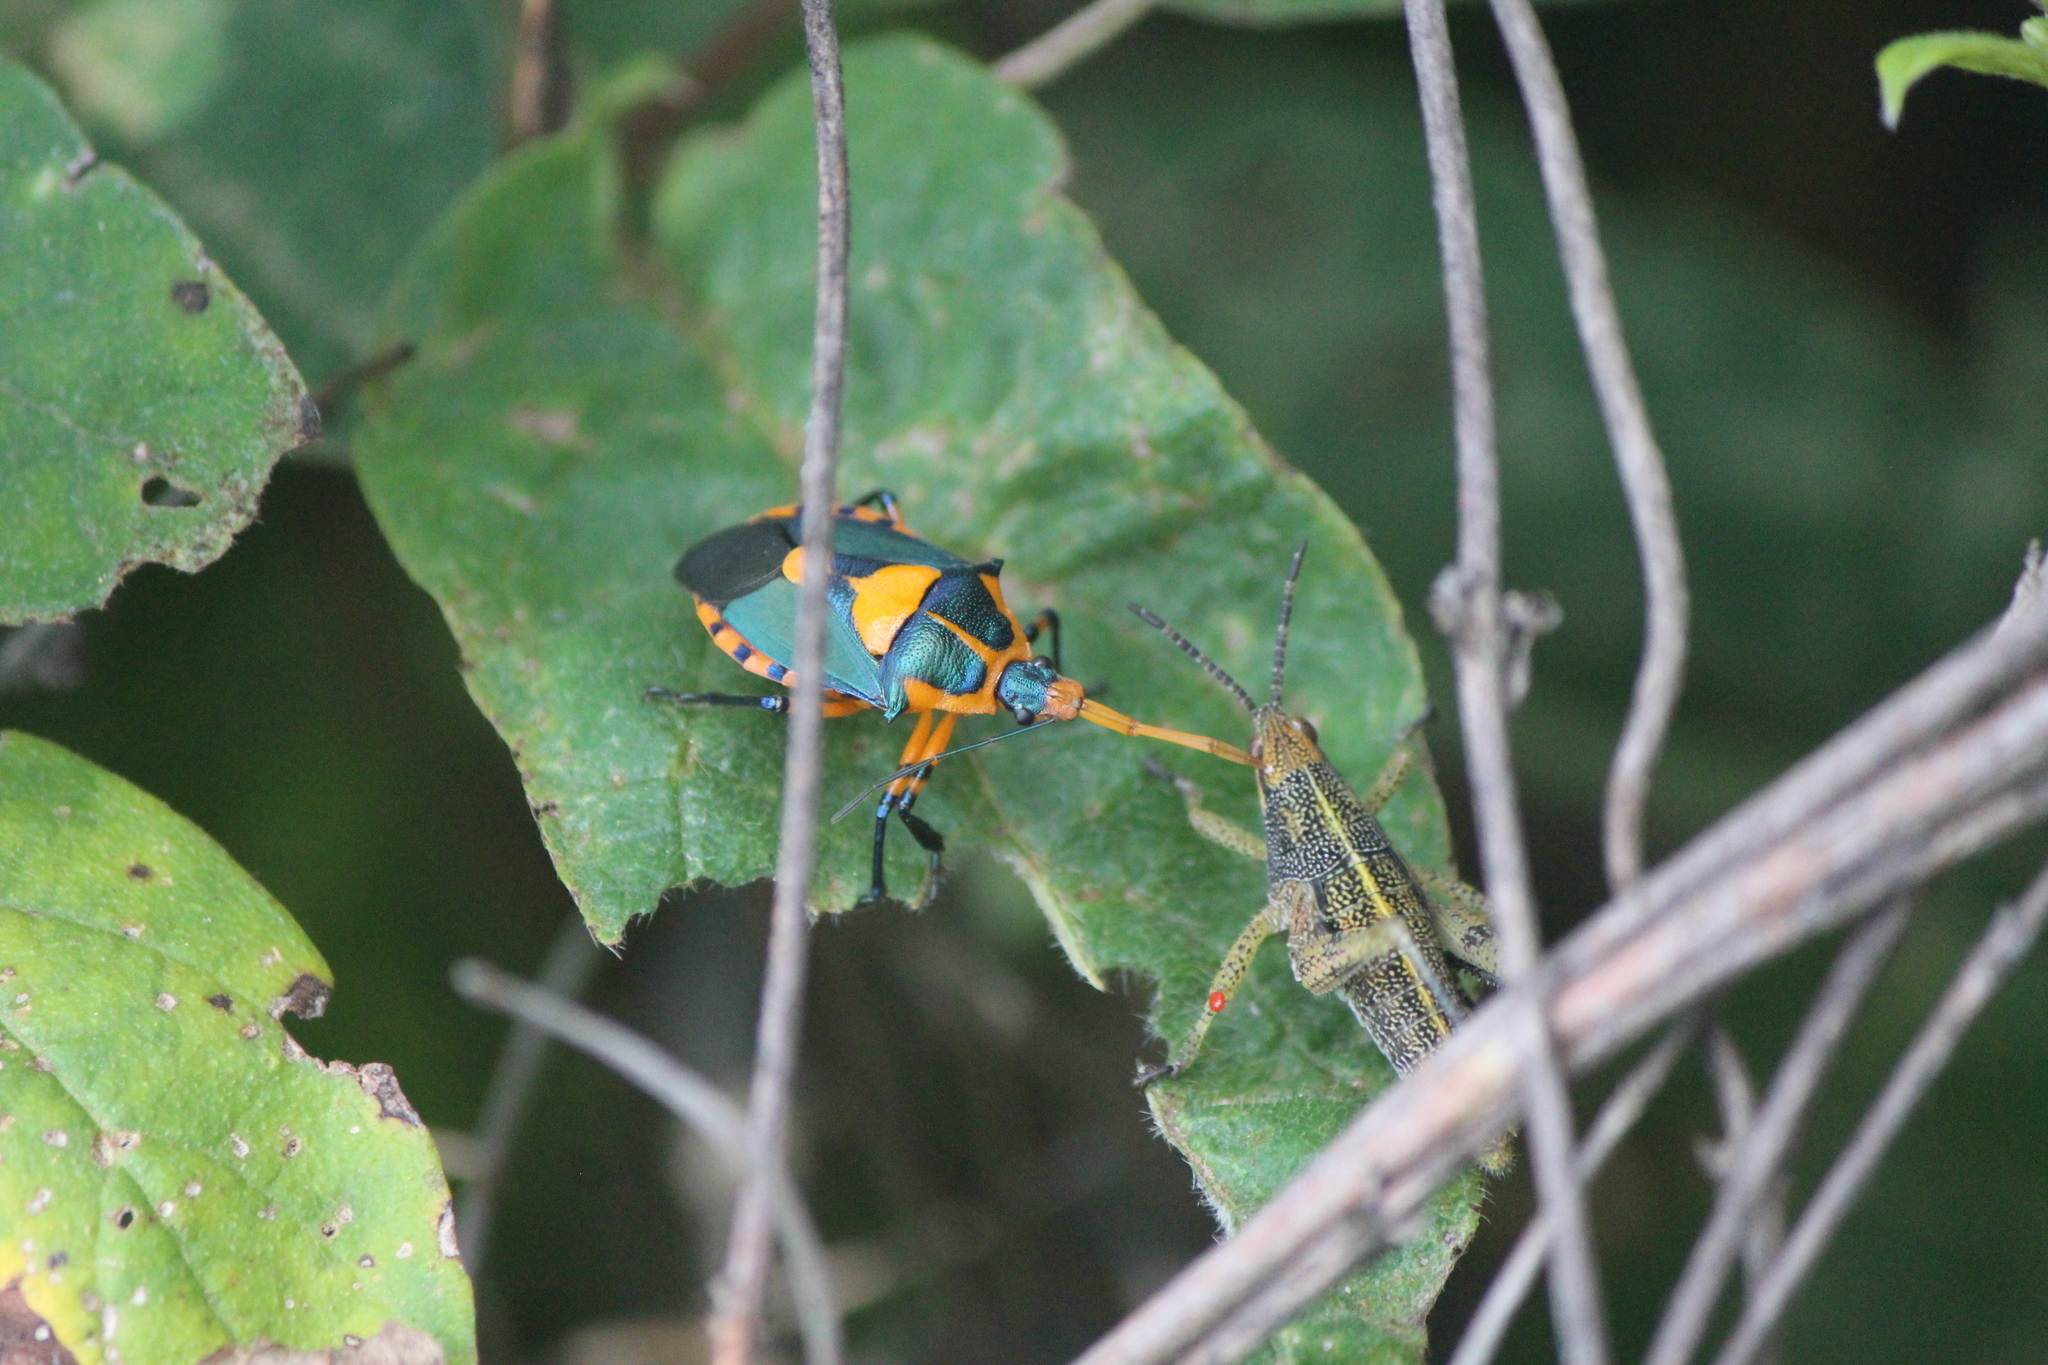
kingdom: Animalia
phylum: Arthropoda
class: Insecta
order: Hemiptera
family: Pentatomidae
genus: Euthyrhynchus
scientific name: Euthyrhynchus floridanus
